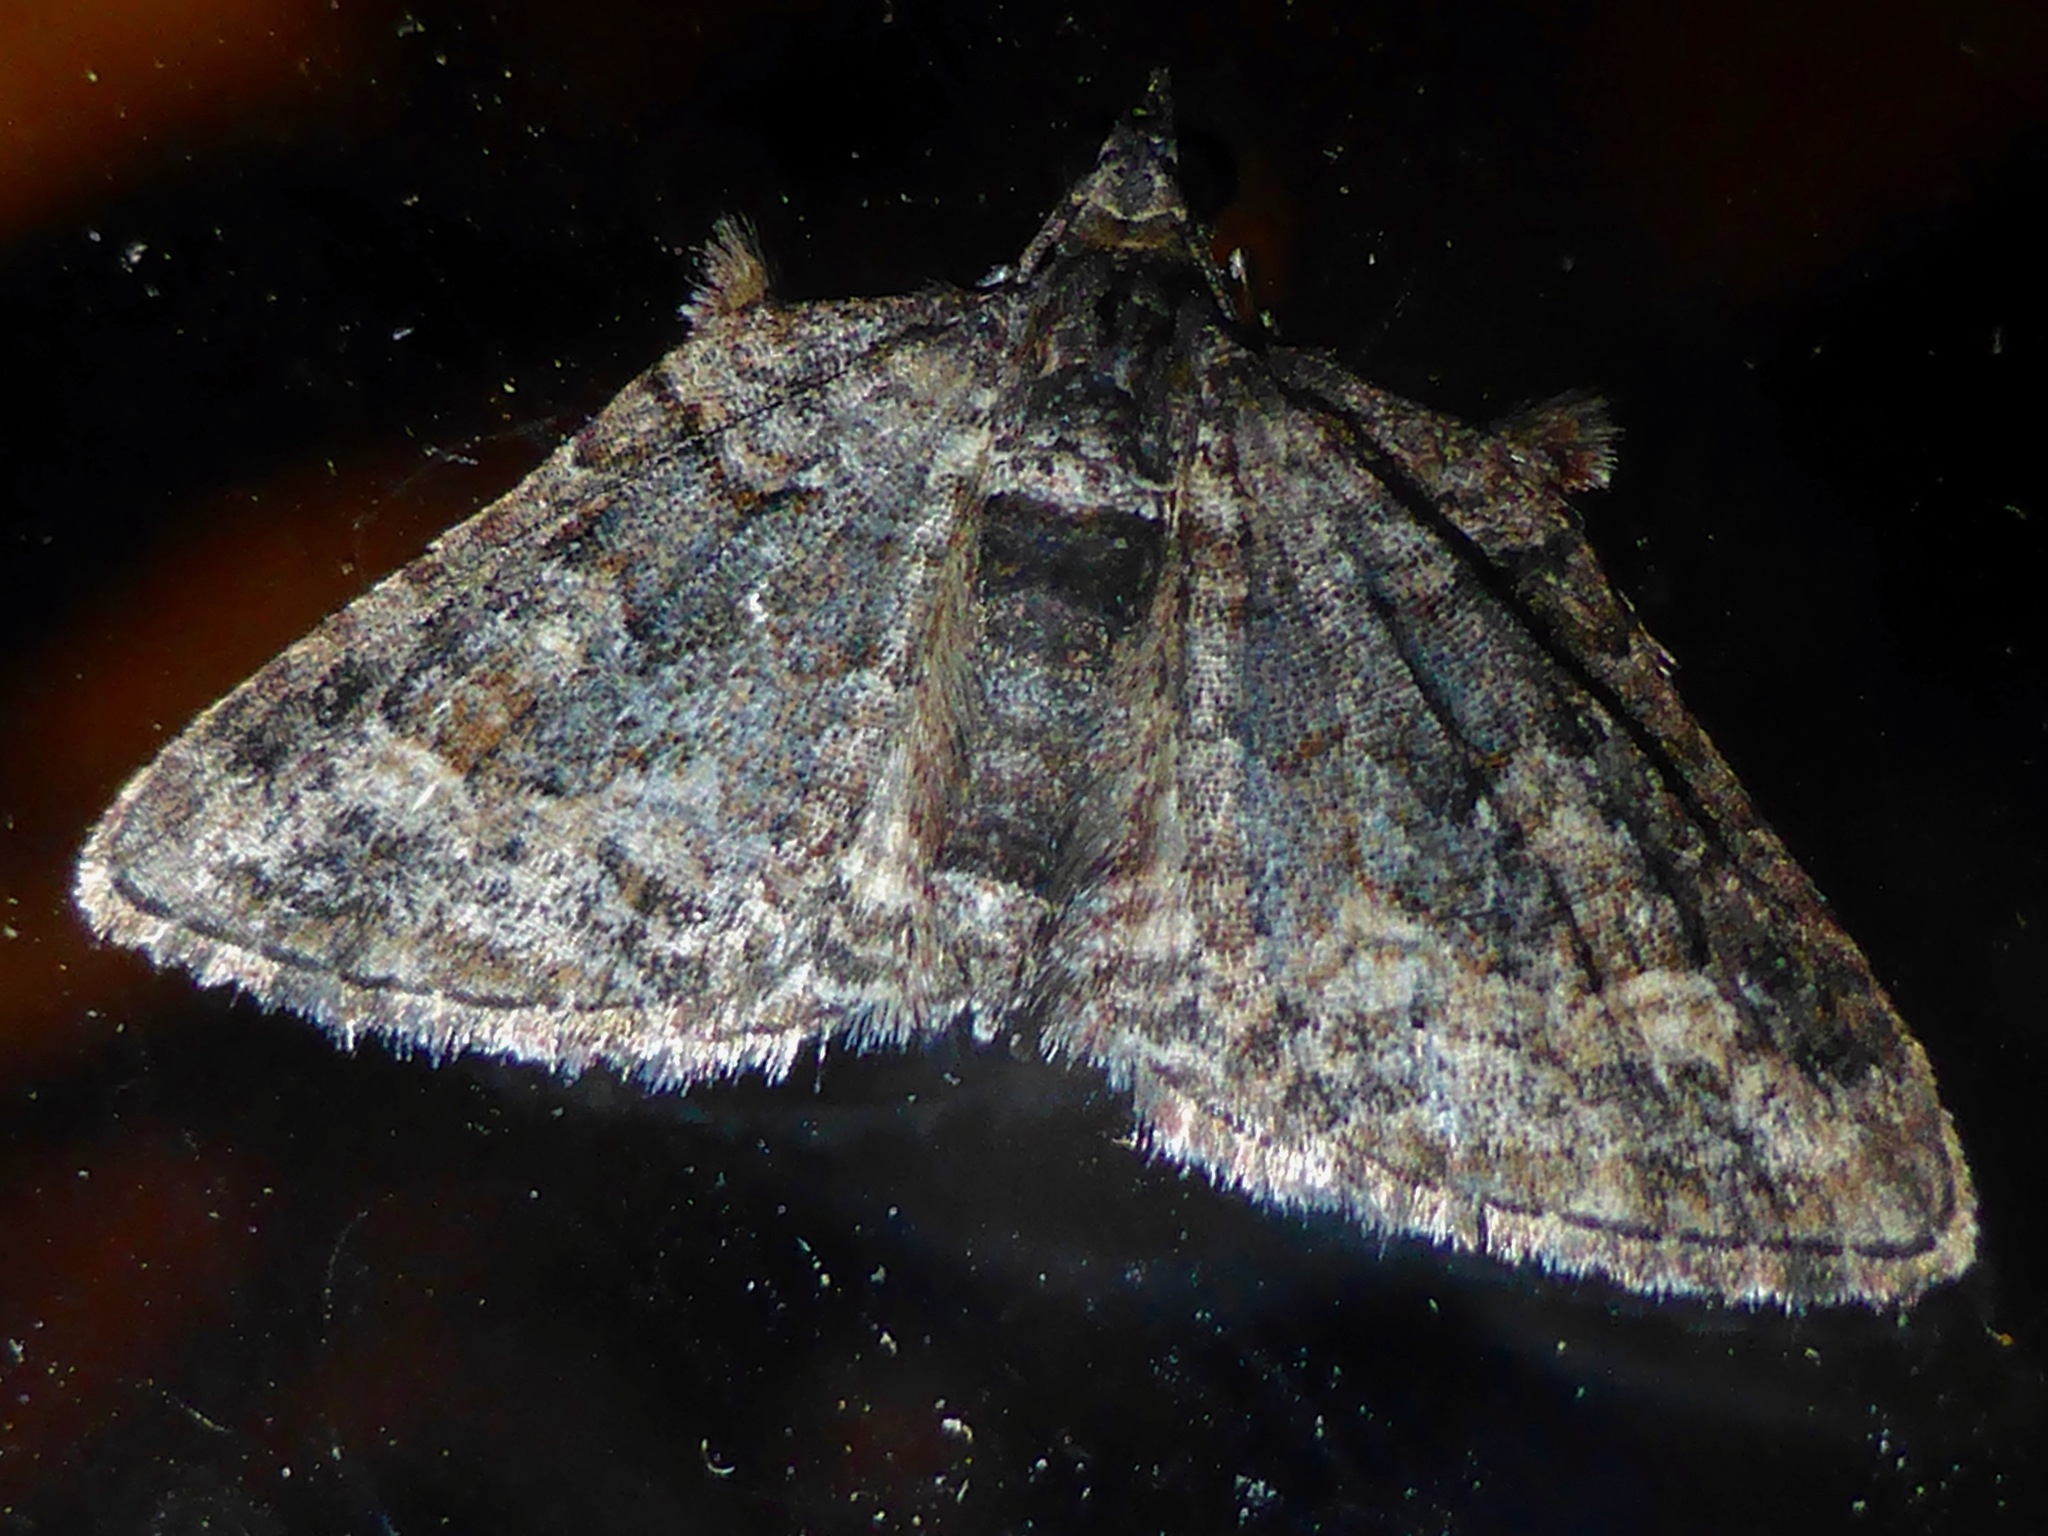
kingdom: Animalia
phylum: Arthropoda
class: Insecta
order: Lepidoptera
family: Geometridae
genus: Phrissogonus
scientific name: Phrissogonus laticostata
